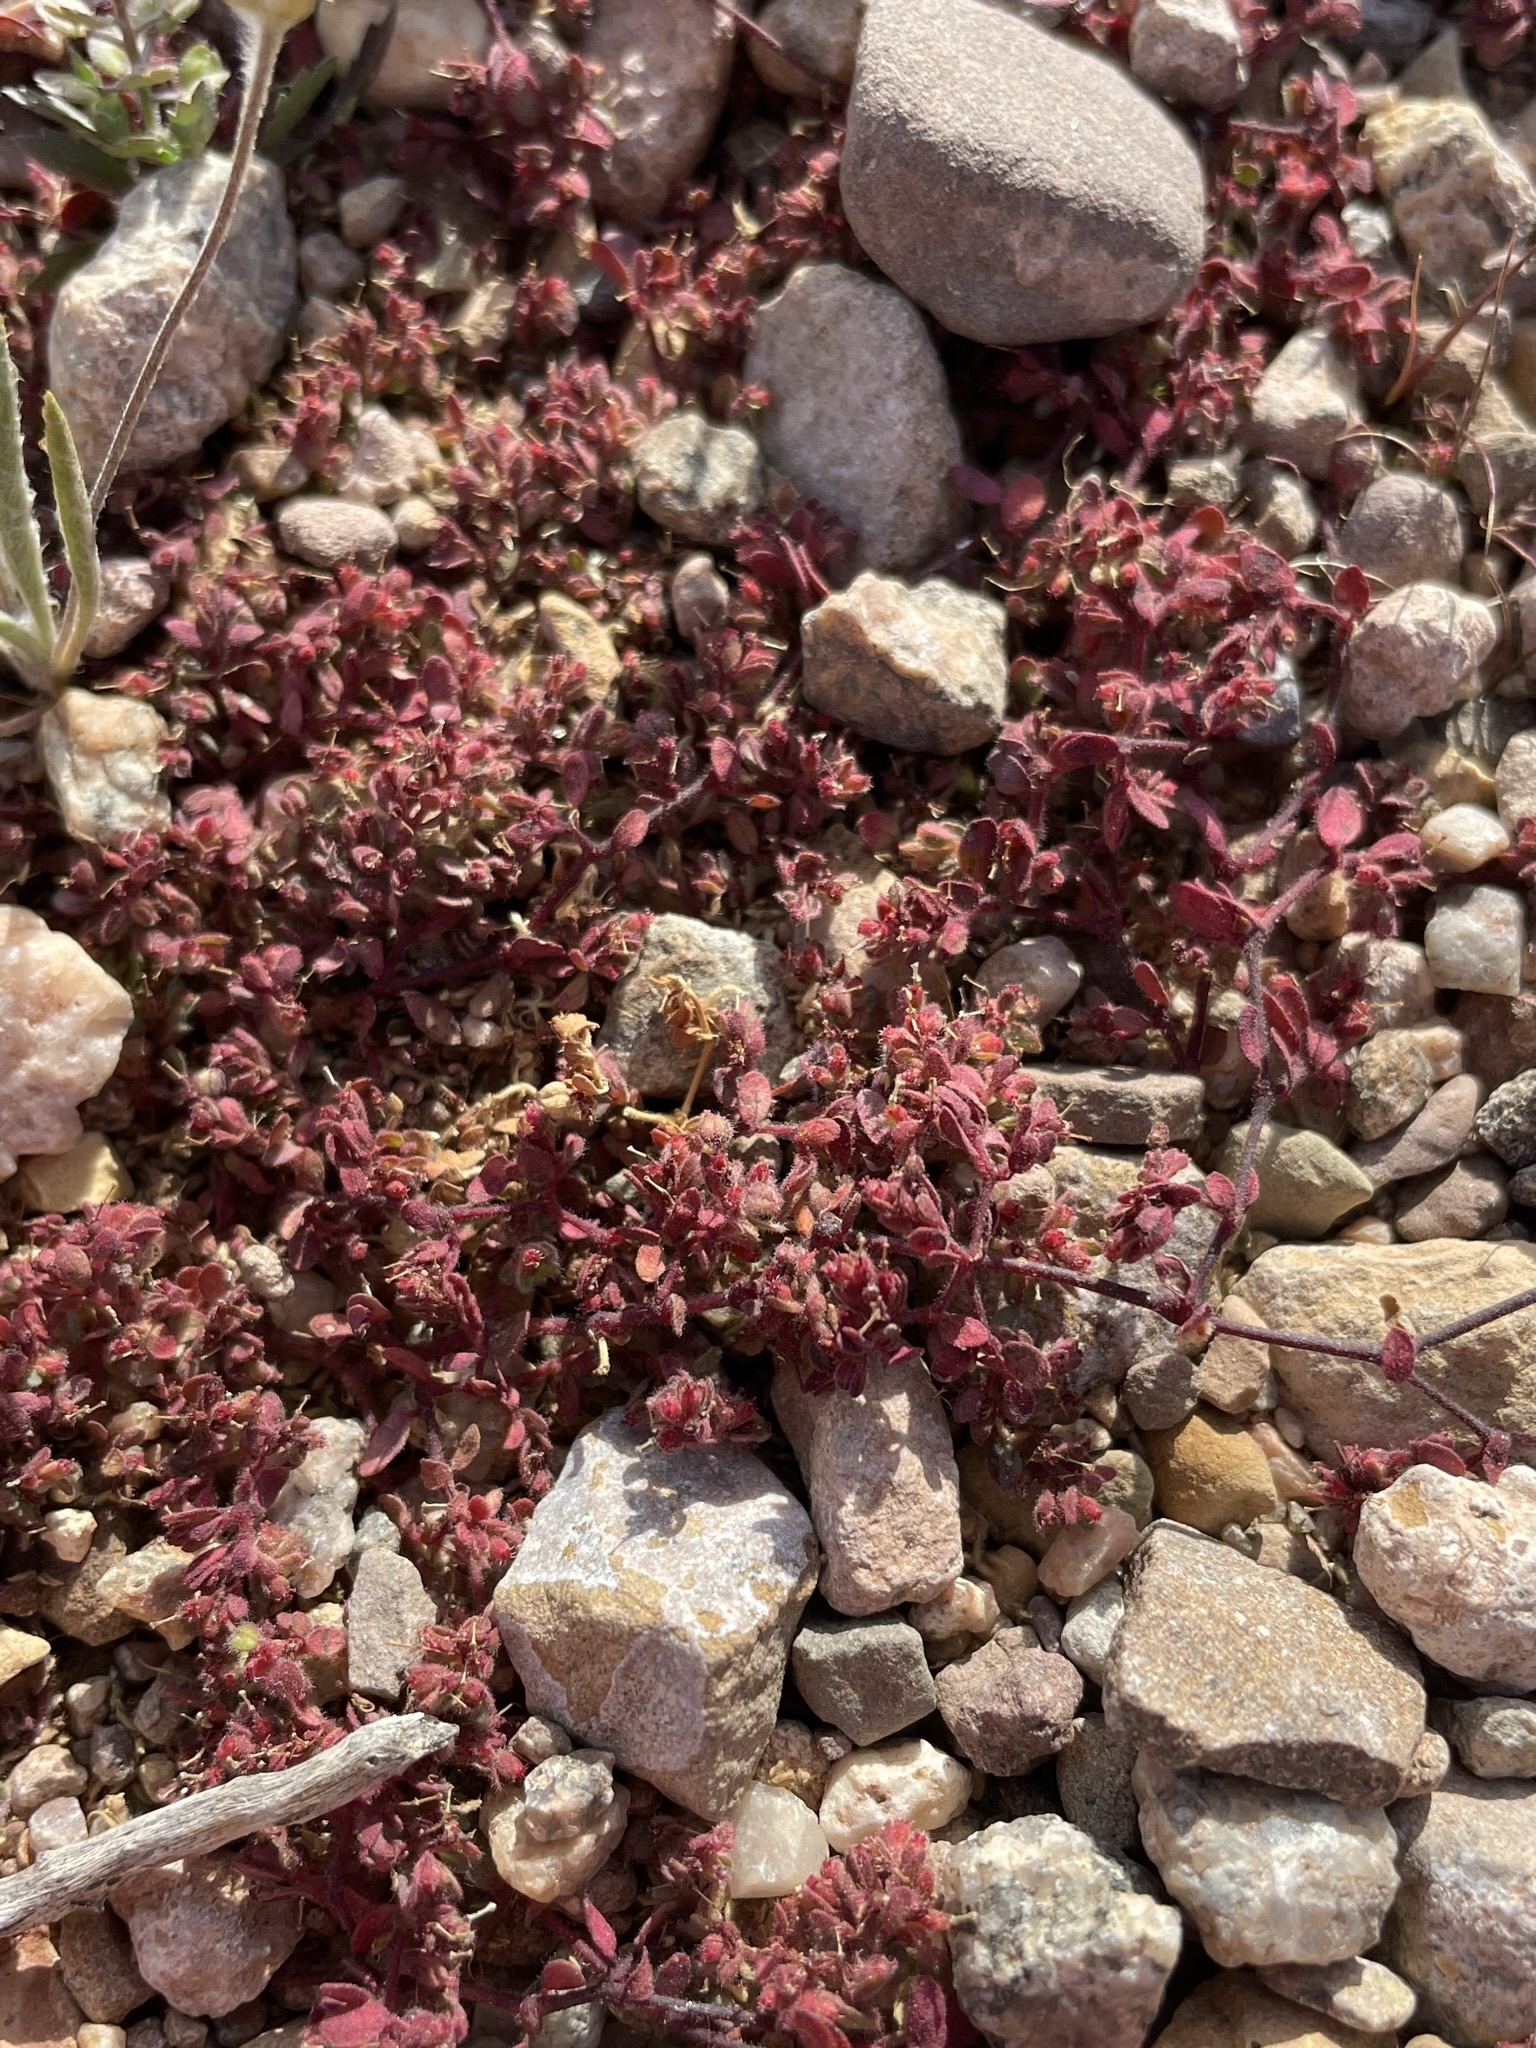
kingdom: Plantae
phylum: Tracheophyta
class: Magnoliopsida
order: Malpighiales
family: Euphorbiaceae
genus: Euphorbia
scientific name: Euphorbia setiloba
